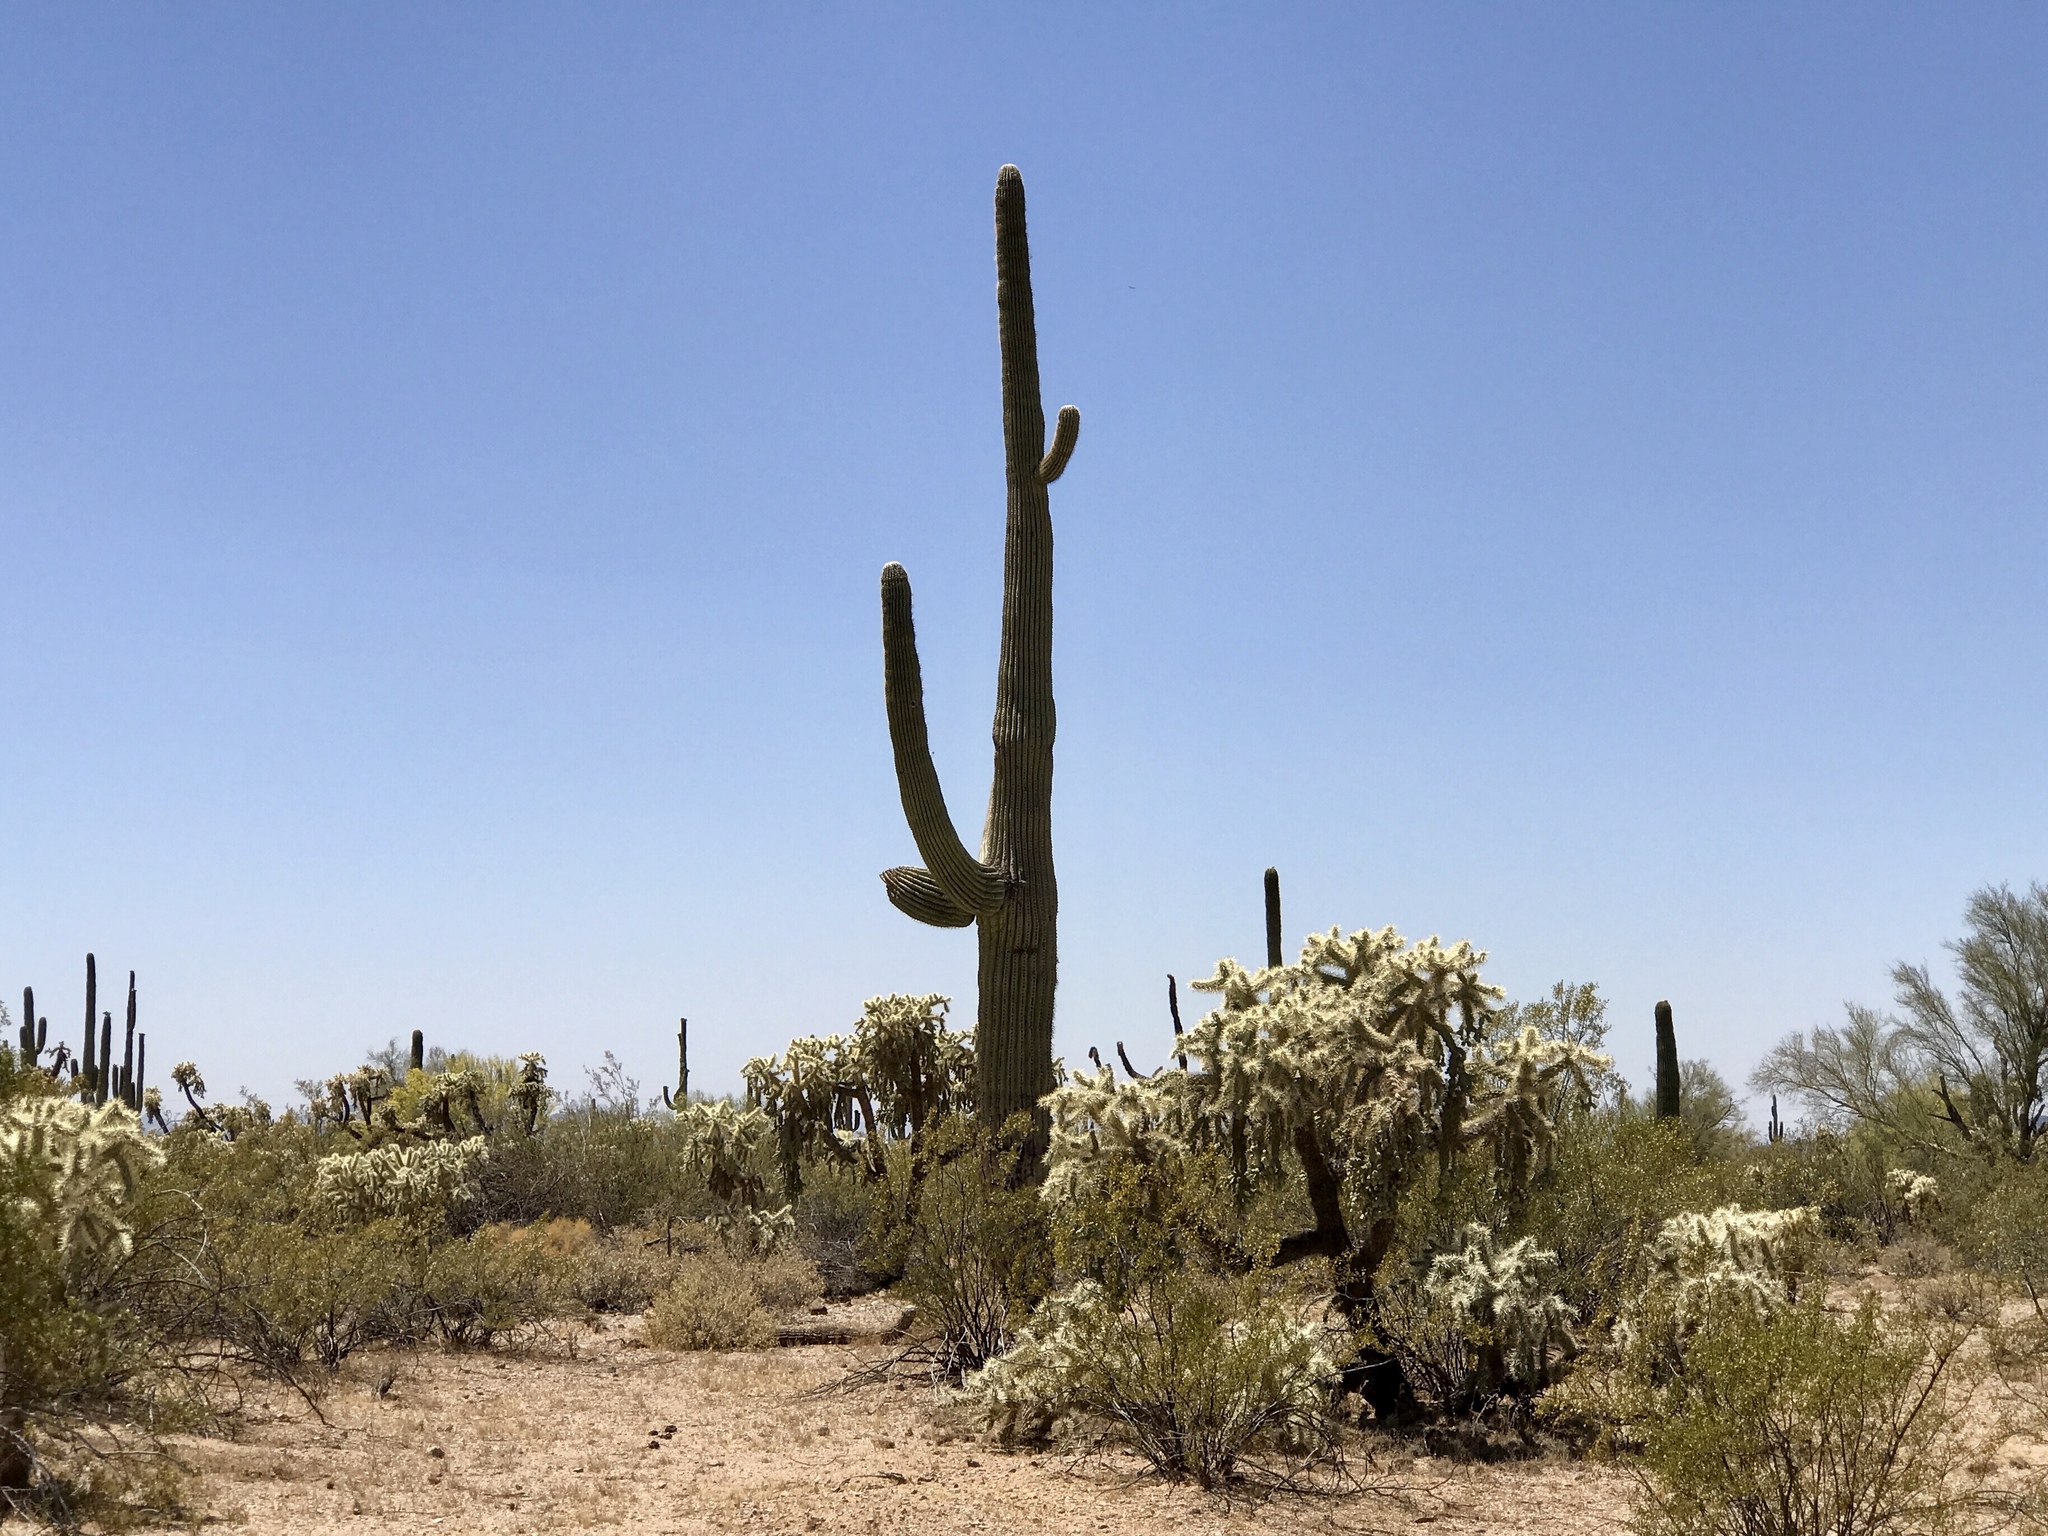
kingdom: Plantae
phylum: Tracheophyta
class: Magnoliopsida
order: Caryophyllales
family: Cactaceae
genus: Carnegiea
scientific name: Carnegiea gigantea
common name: Saguaro
